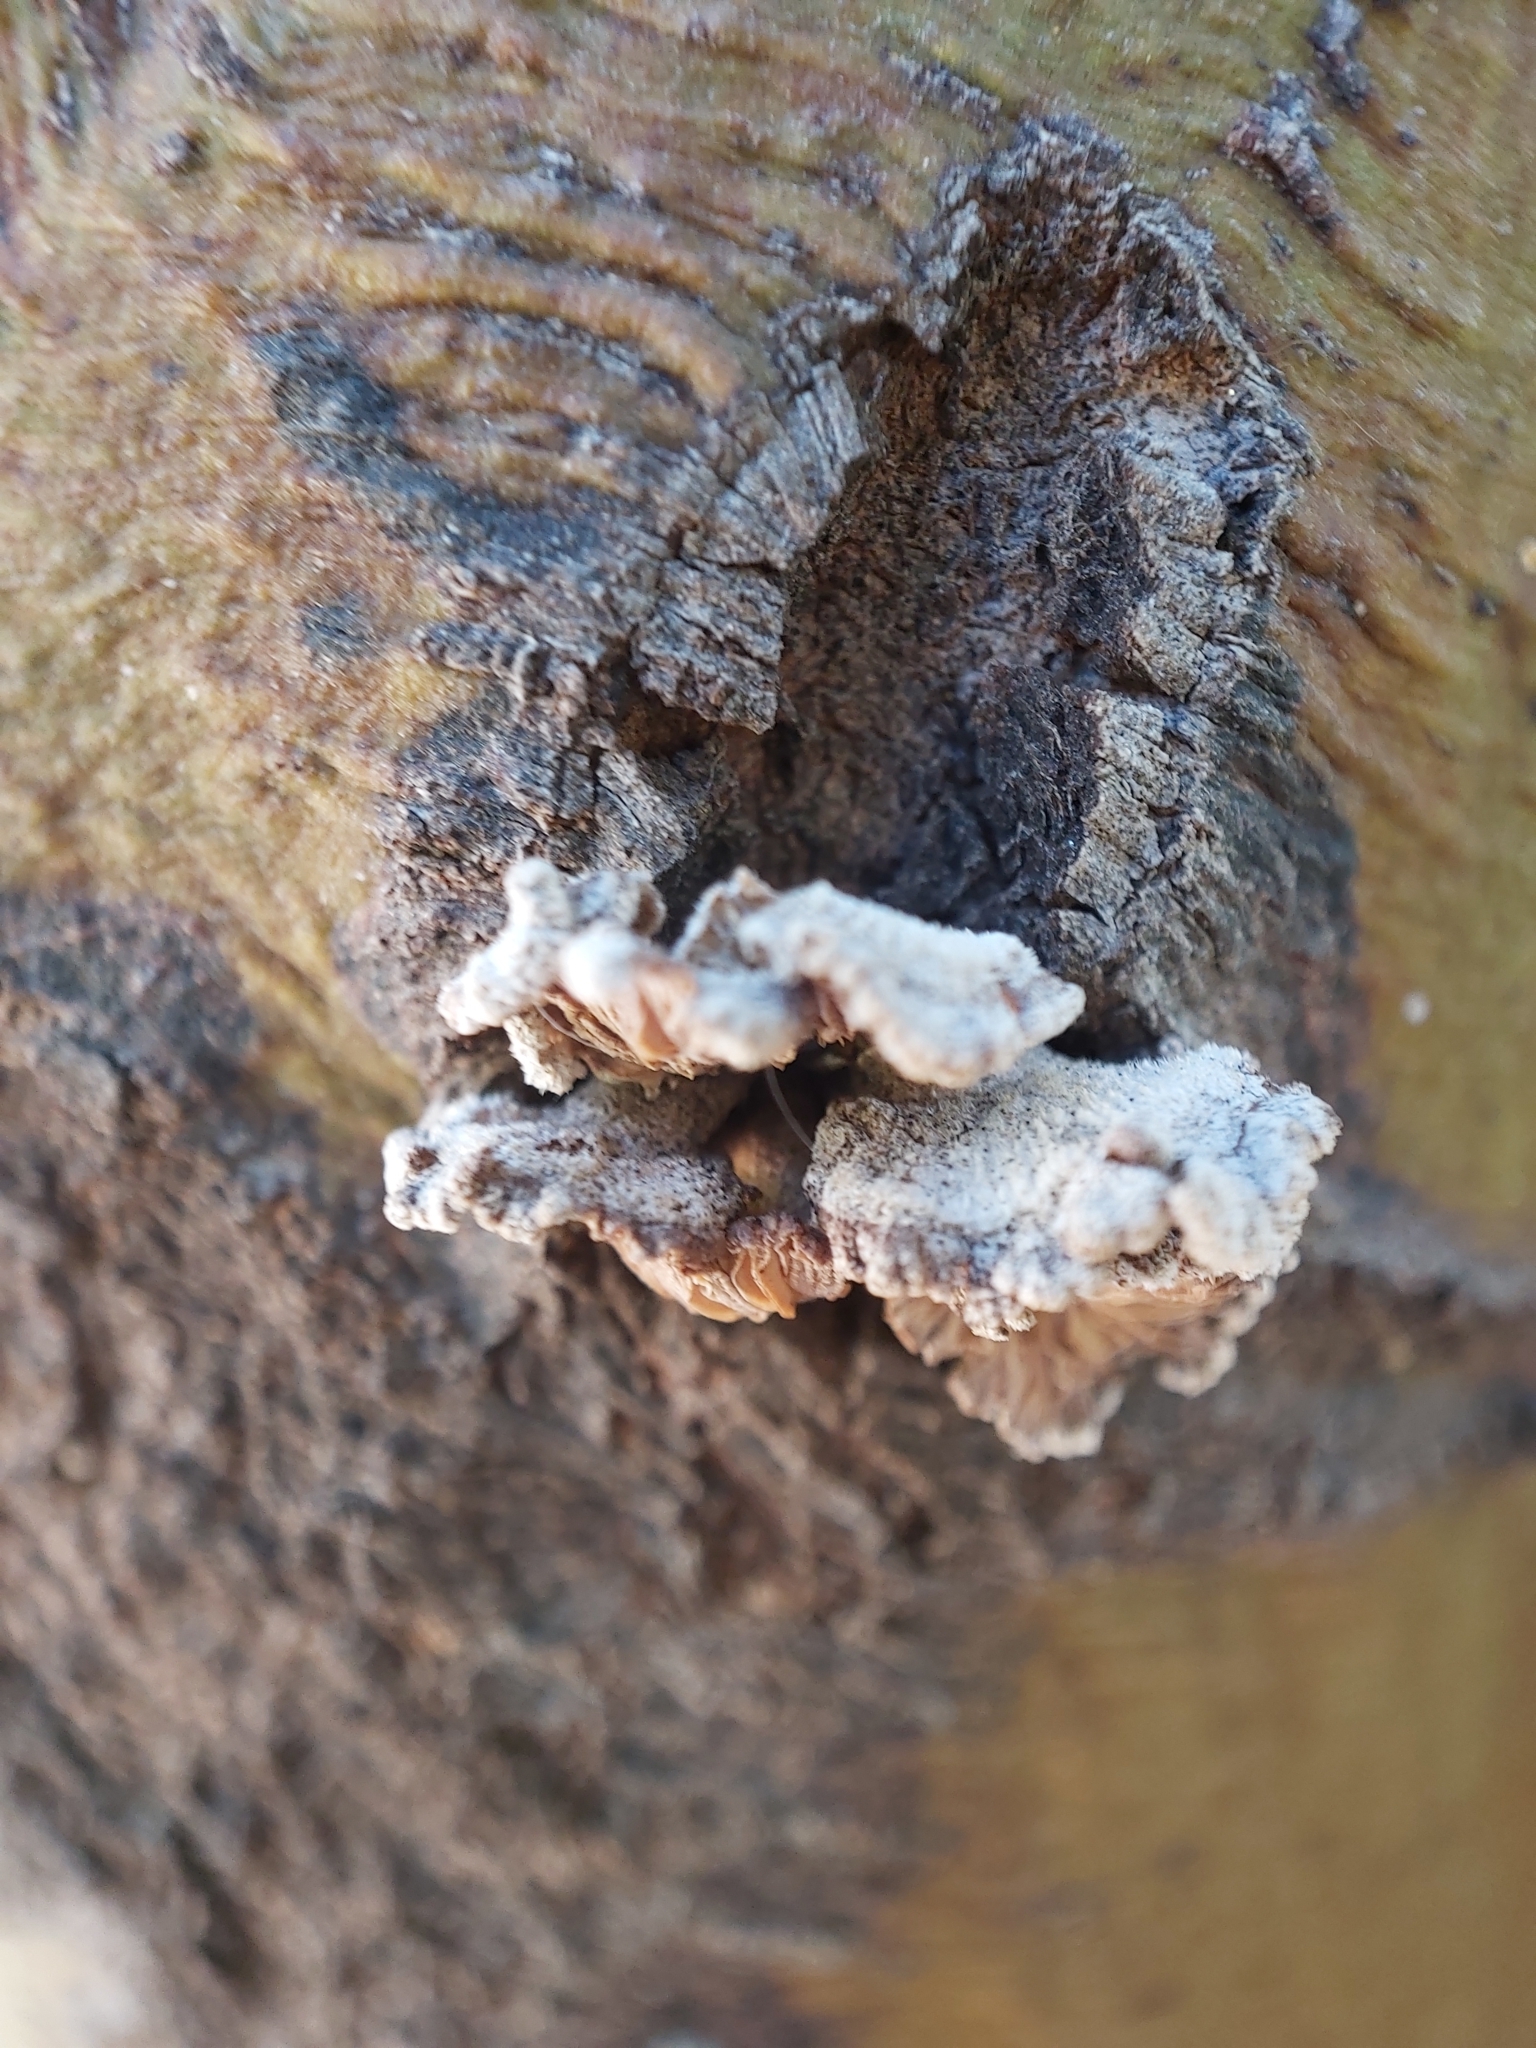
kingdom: Fungi
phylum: Basidiomycota
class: Agaricomycetes
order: Agaricales
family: Schizophyllaceae
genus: Schizophyllum
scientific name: Schizophyllum commune
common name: Common porecrust
